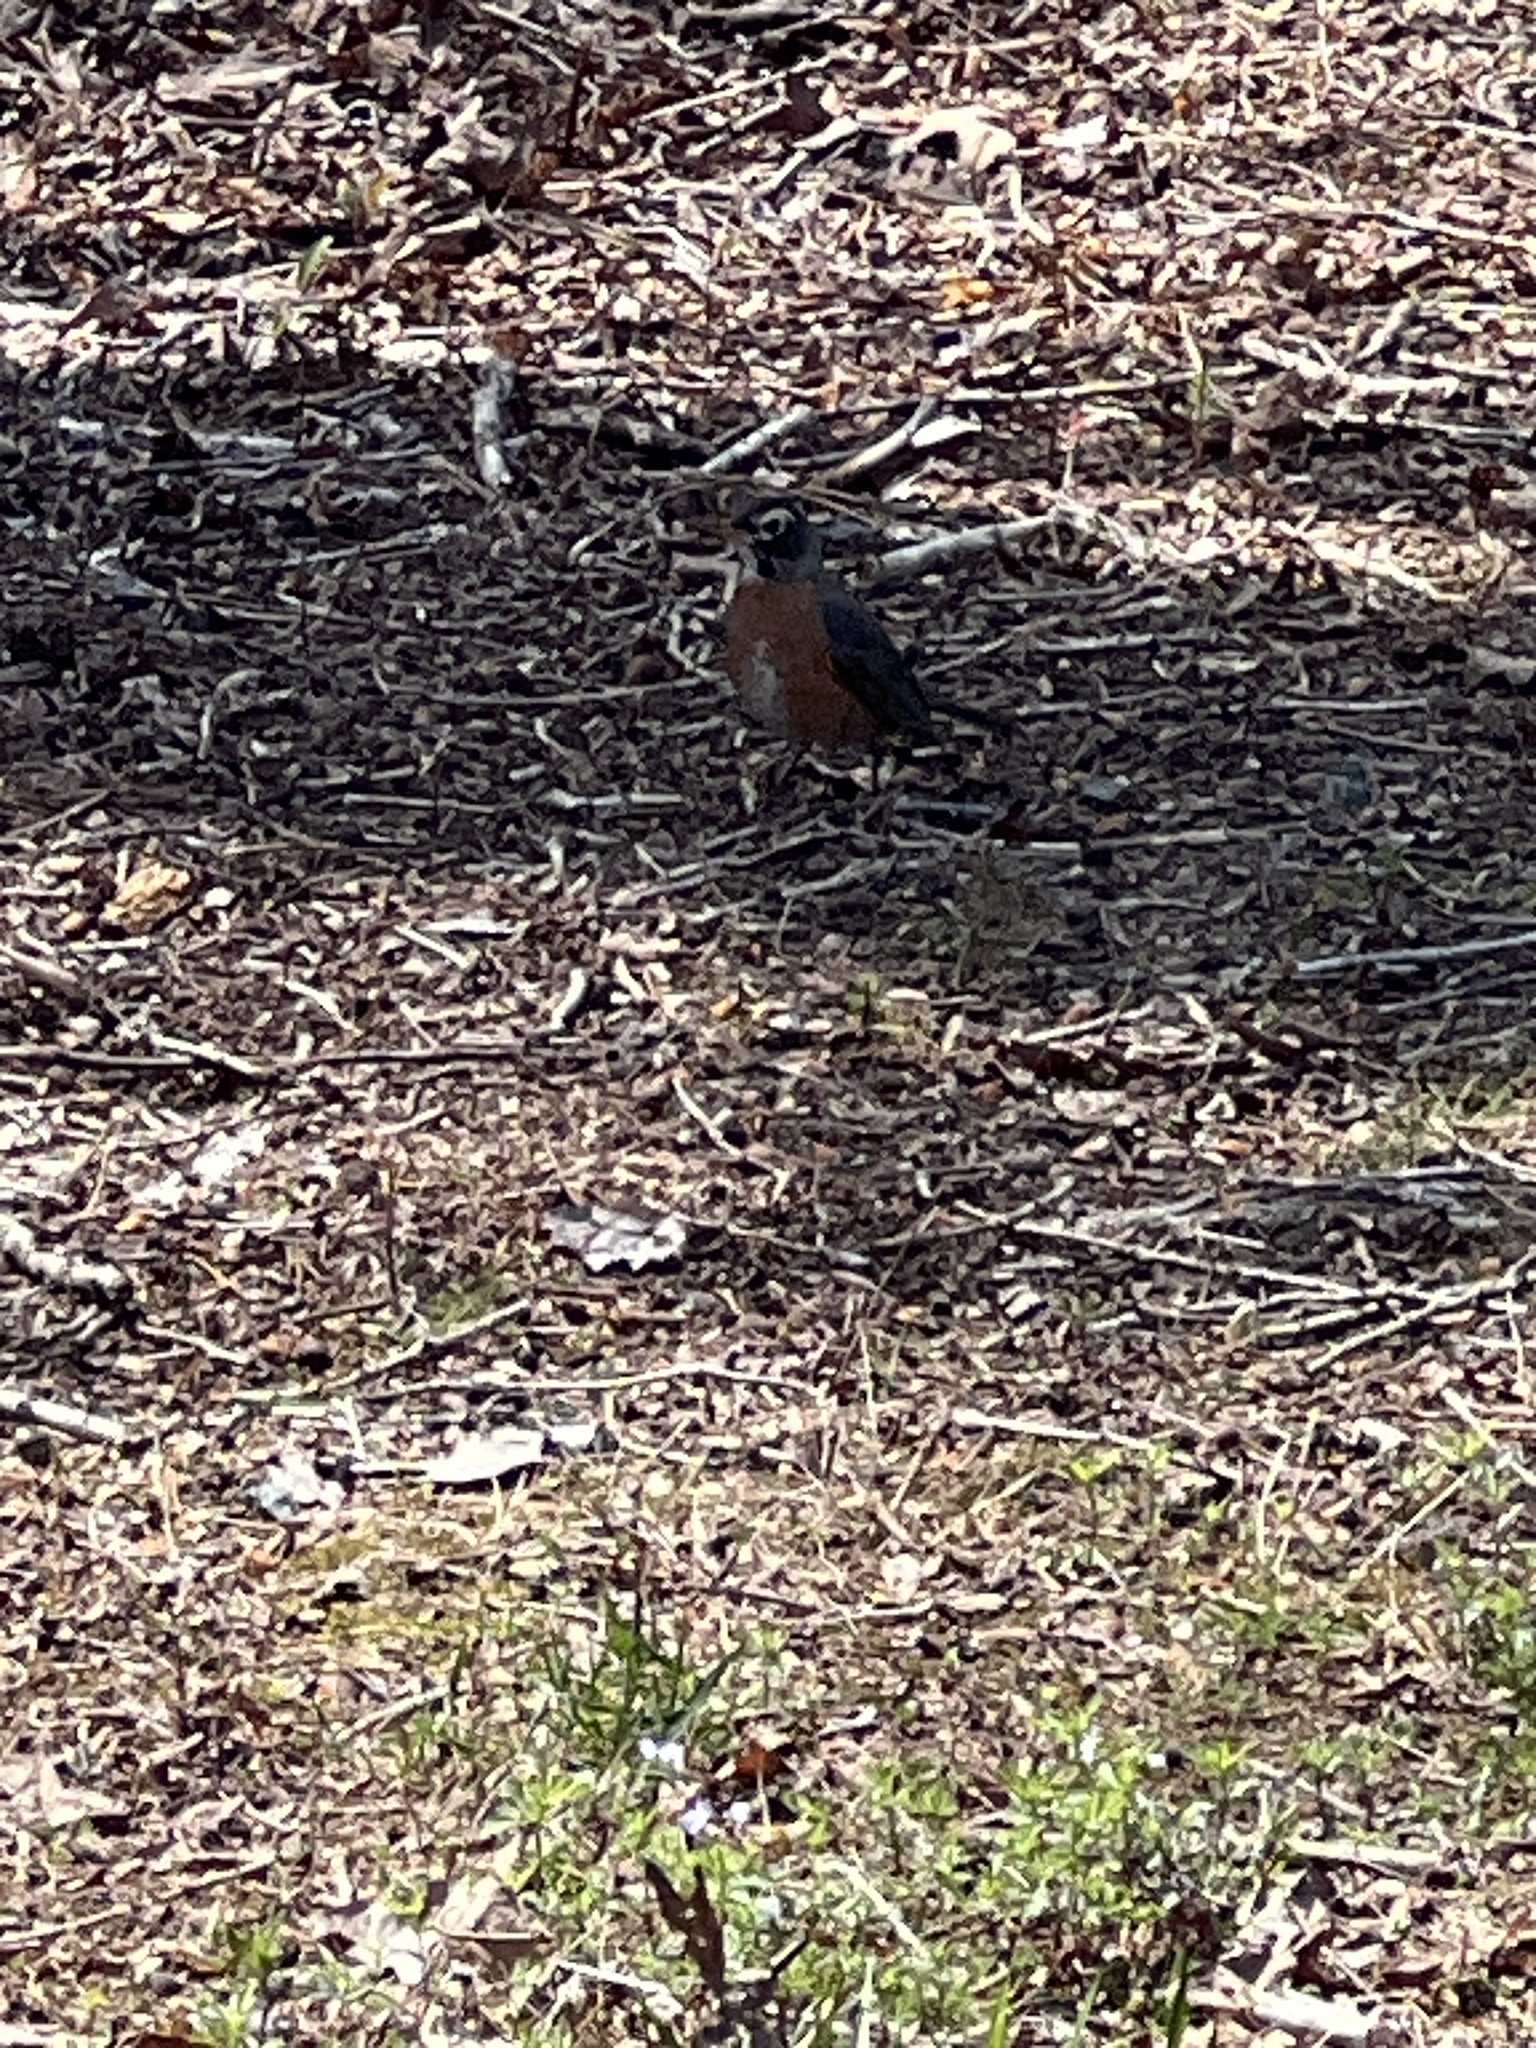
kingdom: Animalia
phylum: Chordata
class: Aves
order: Passeriformes
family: Turdidae
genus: Turdus
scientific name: Turdus migratorius
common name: American robin
